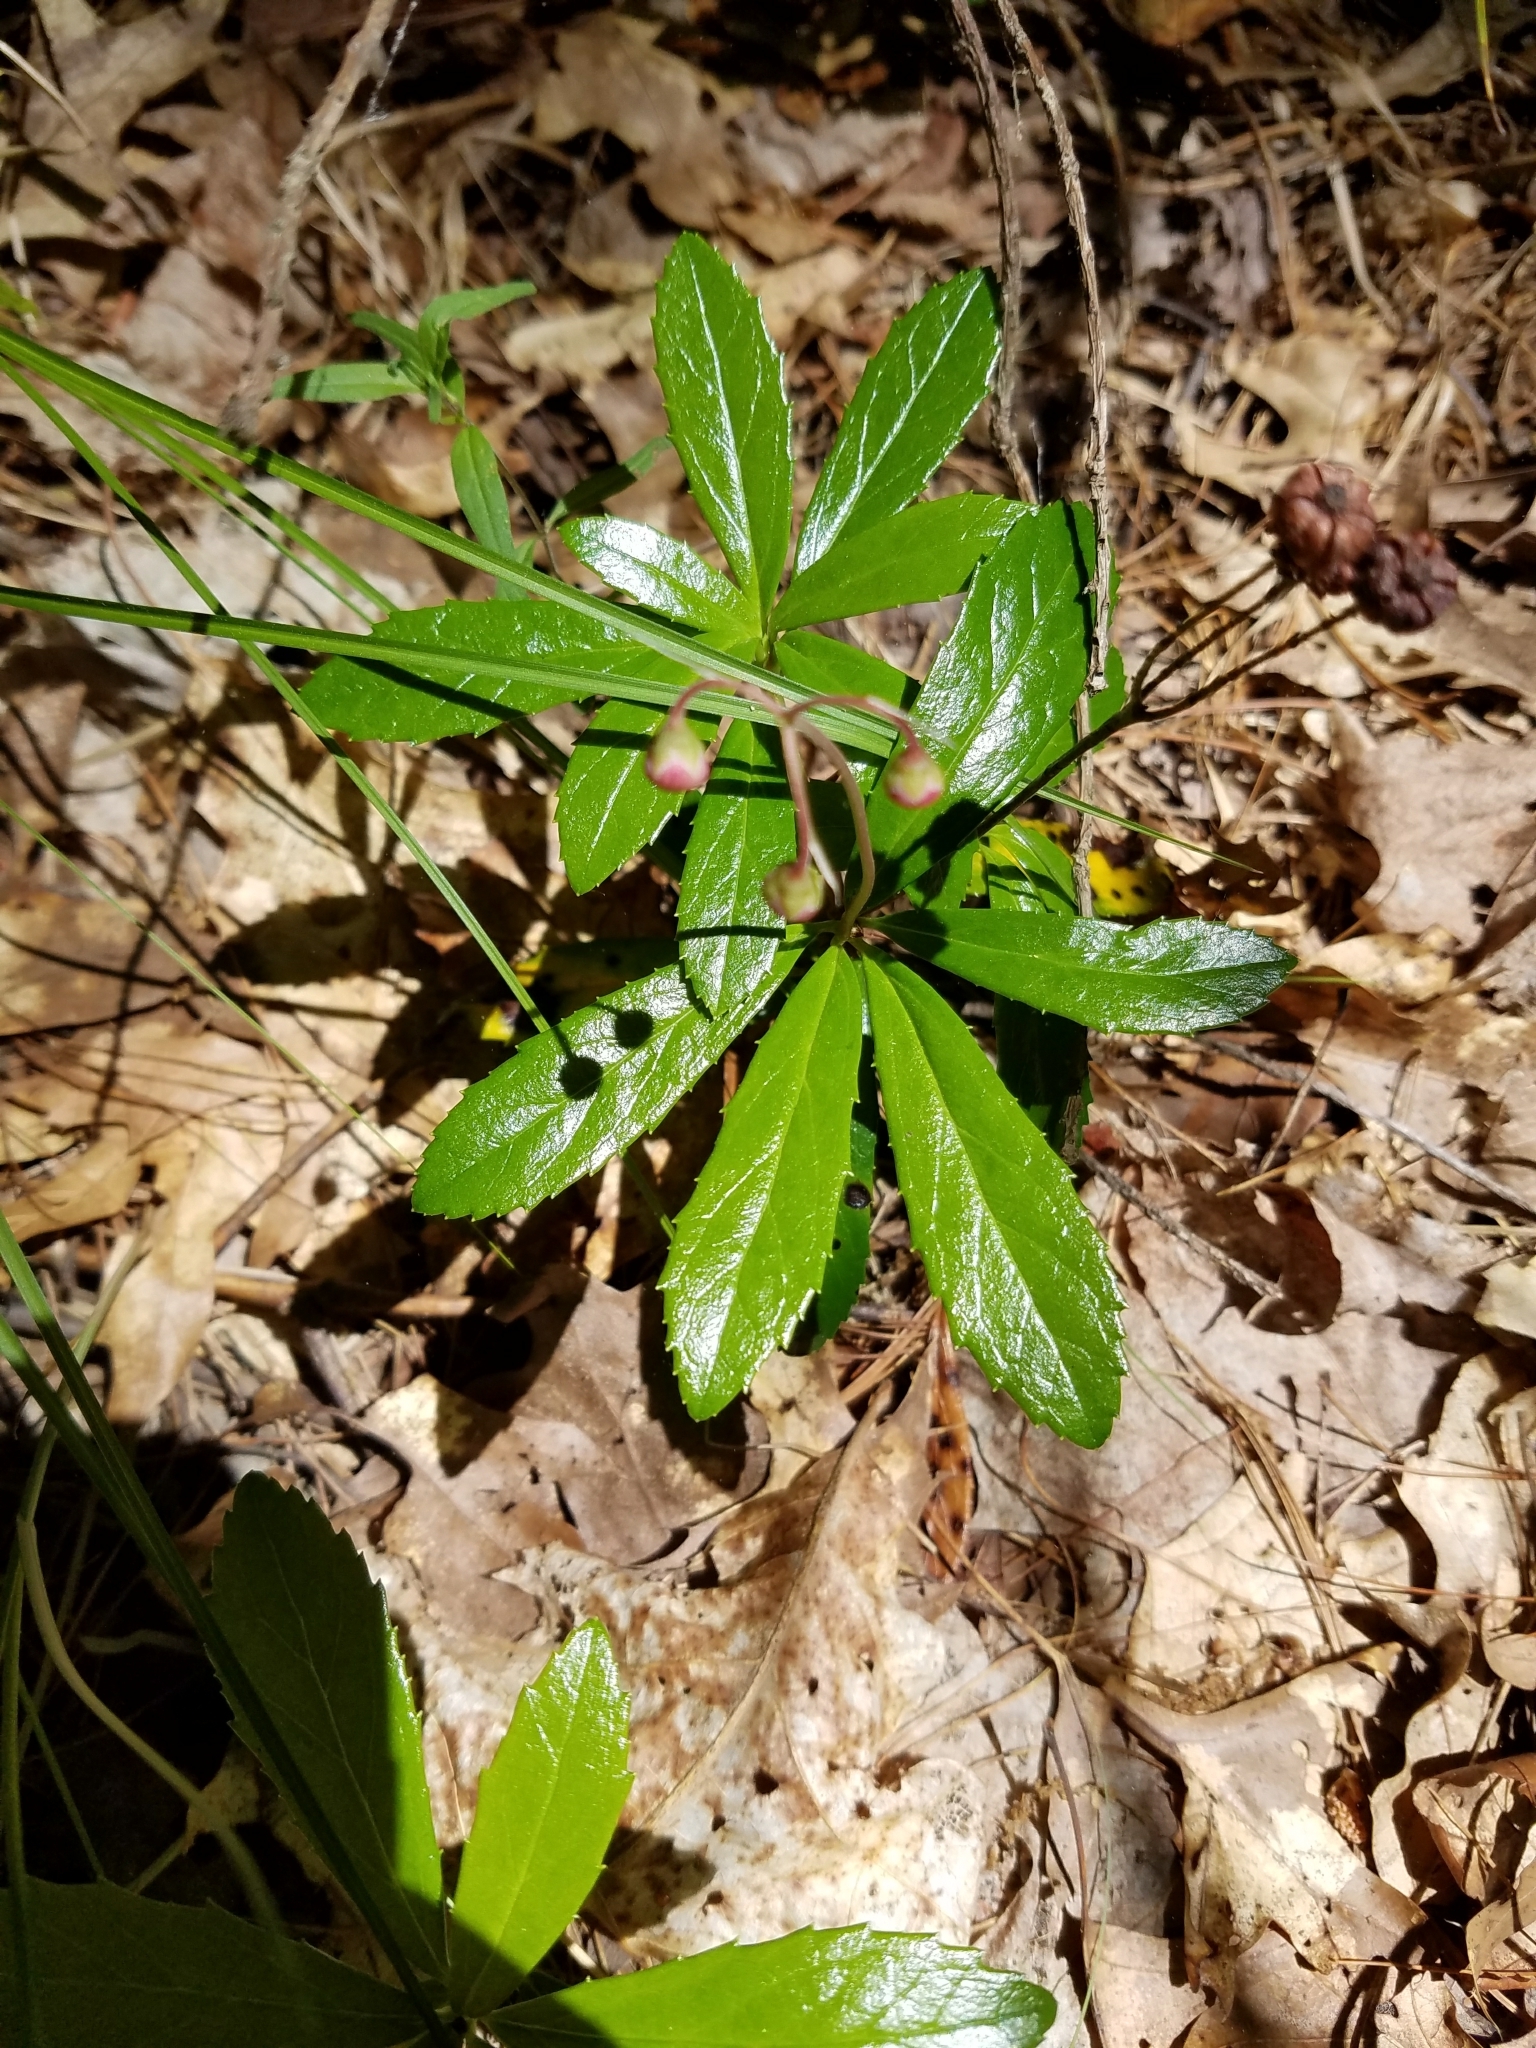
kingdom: Plantae
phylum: Tracheophyta
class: Magnoliopsida
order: Ericales
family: Ericaceae
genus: Chimaphila
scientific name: Chimaphila umbellata
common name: Pipsissewa
